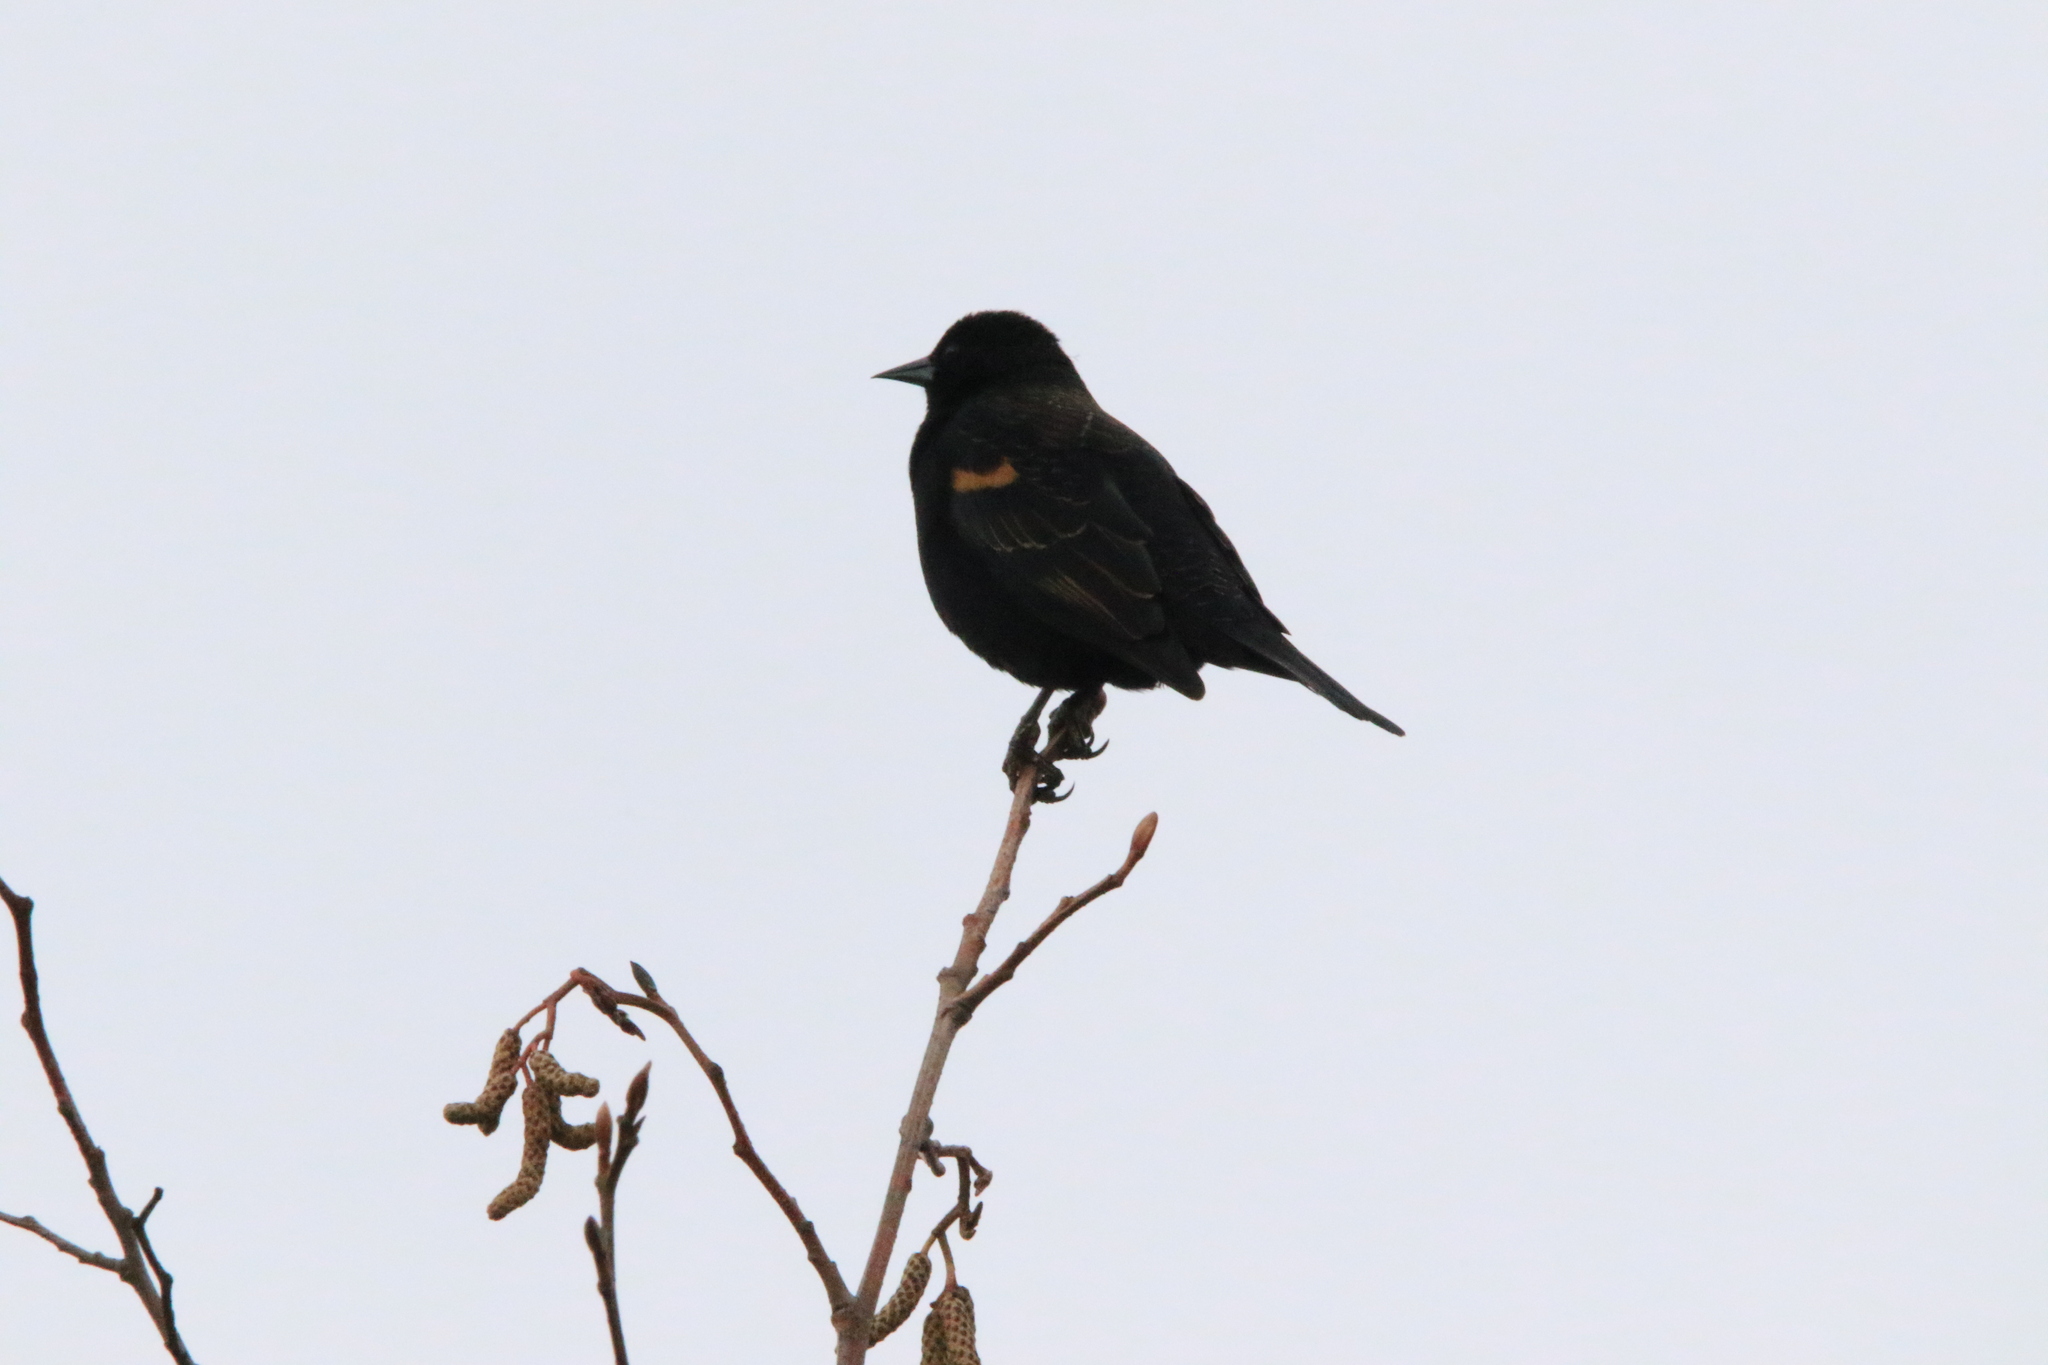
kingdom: Animalia
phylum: Chordata
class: Aves
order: Passeriformes
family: Icteridae
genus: Agelaius
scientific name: Agelaius phoeniceus
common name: Red-winged blackbird
